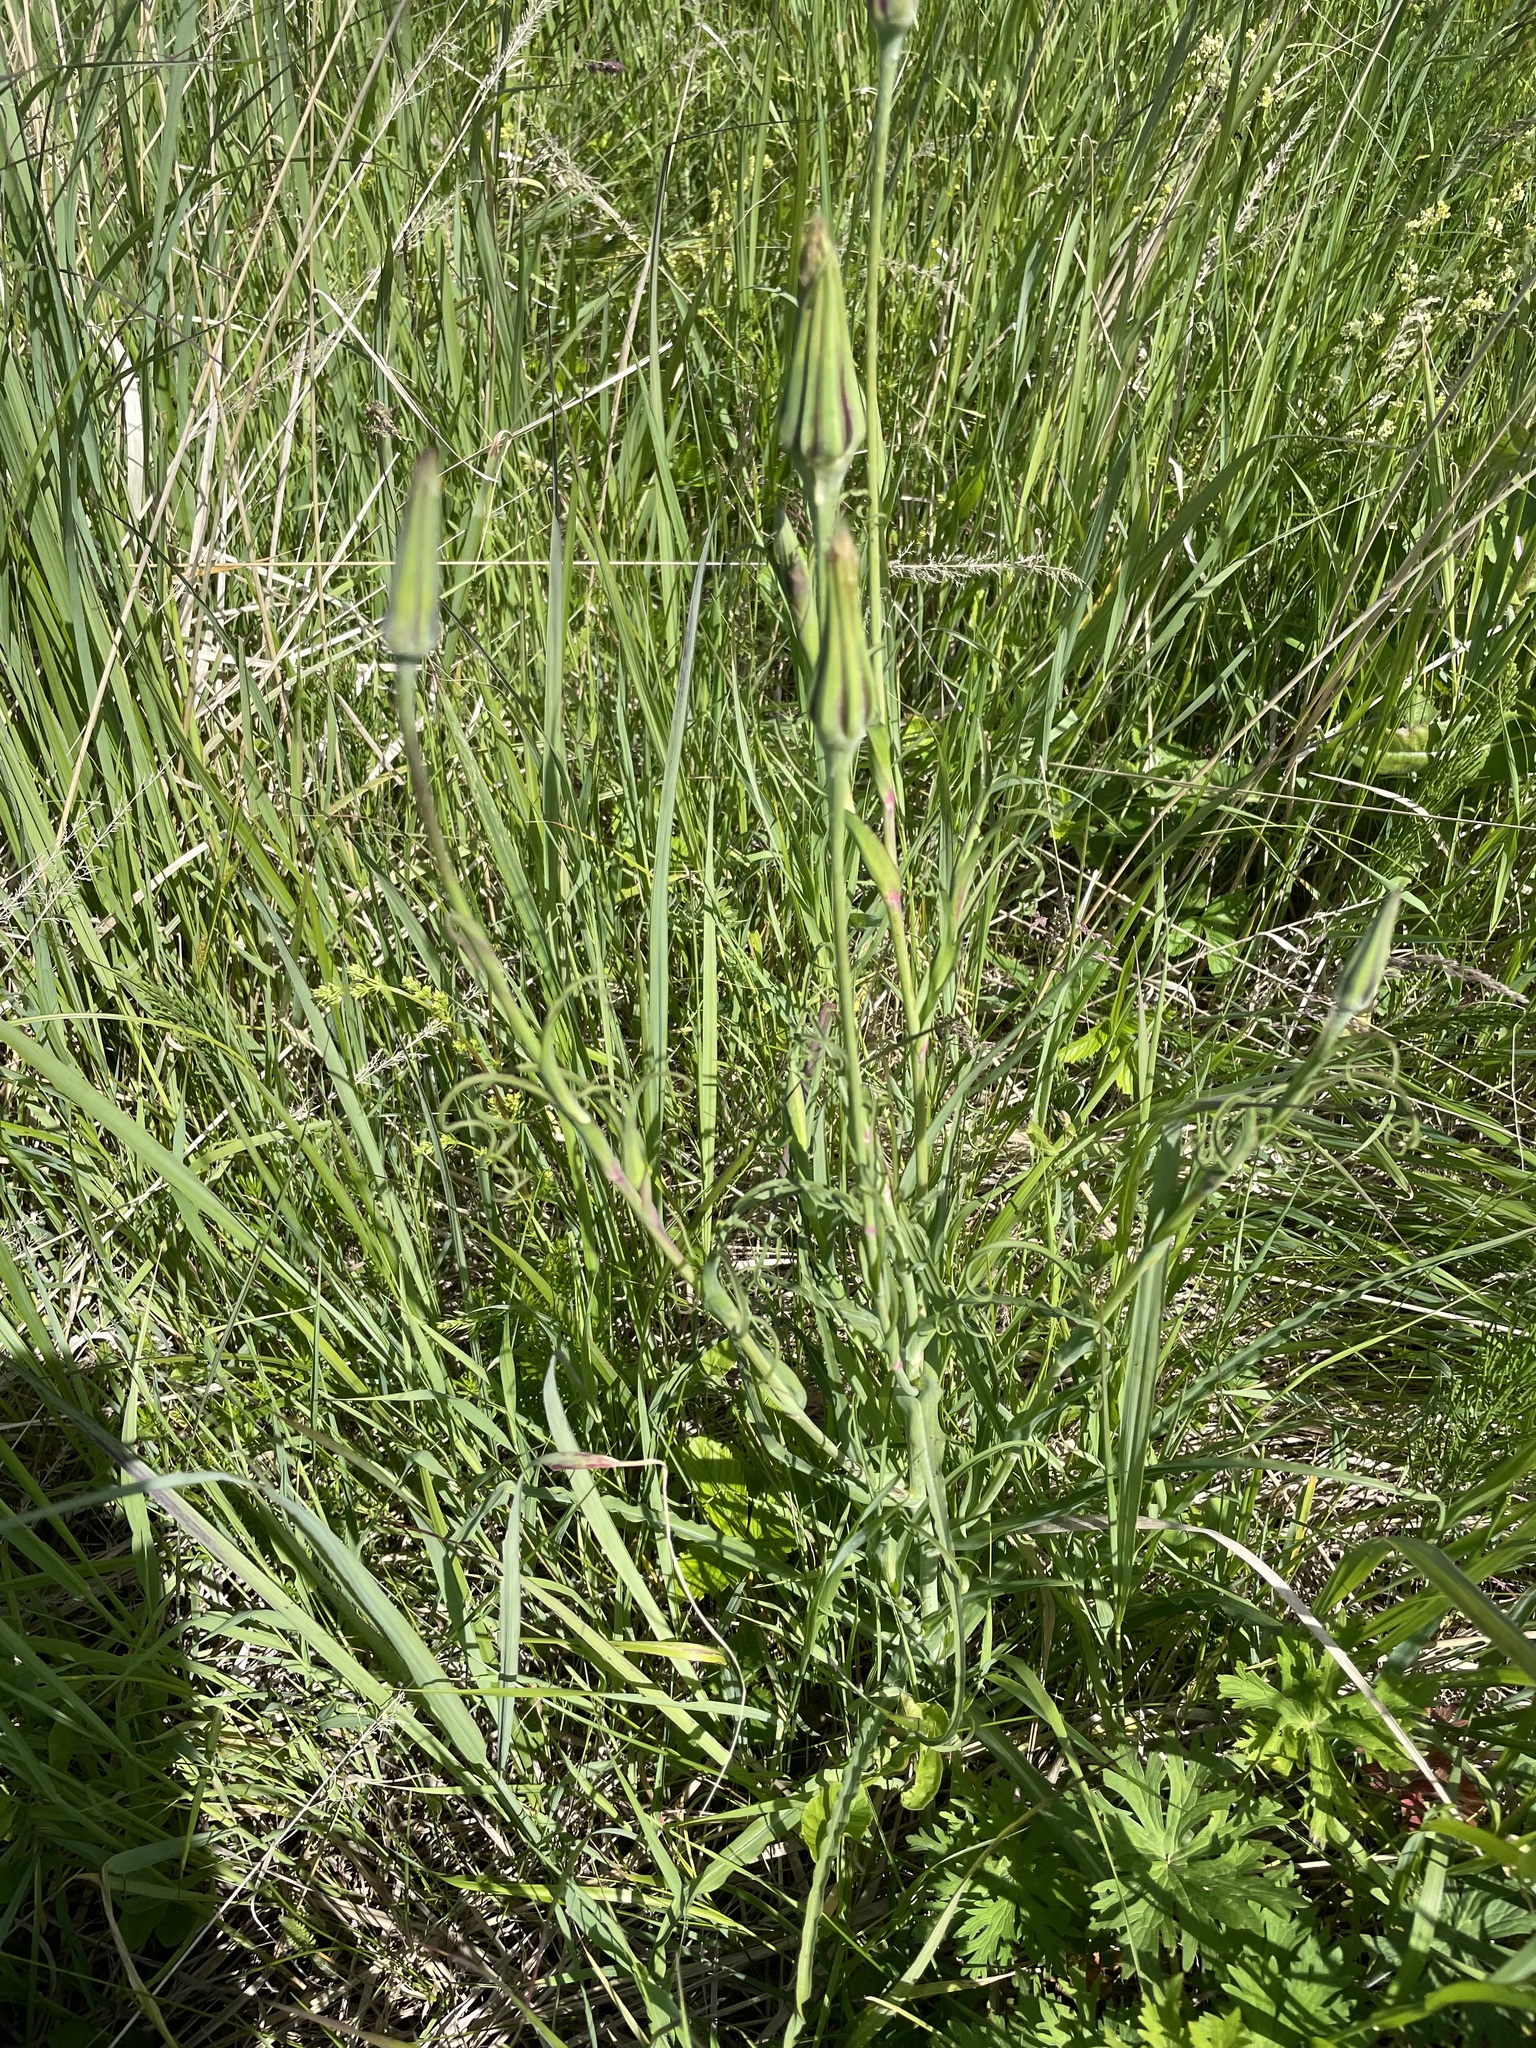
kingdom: Plantae
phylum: Tracheophyta
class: Magnoliopsida
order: Asterales
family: Asteraceae
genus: Tragopogon
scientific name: Tragopogon dubius
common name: Yellow salsify
